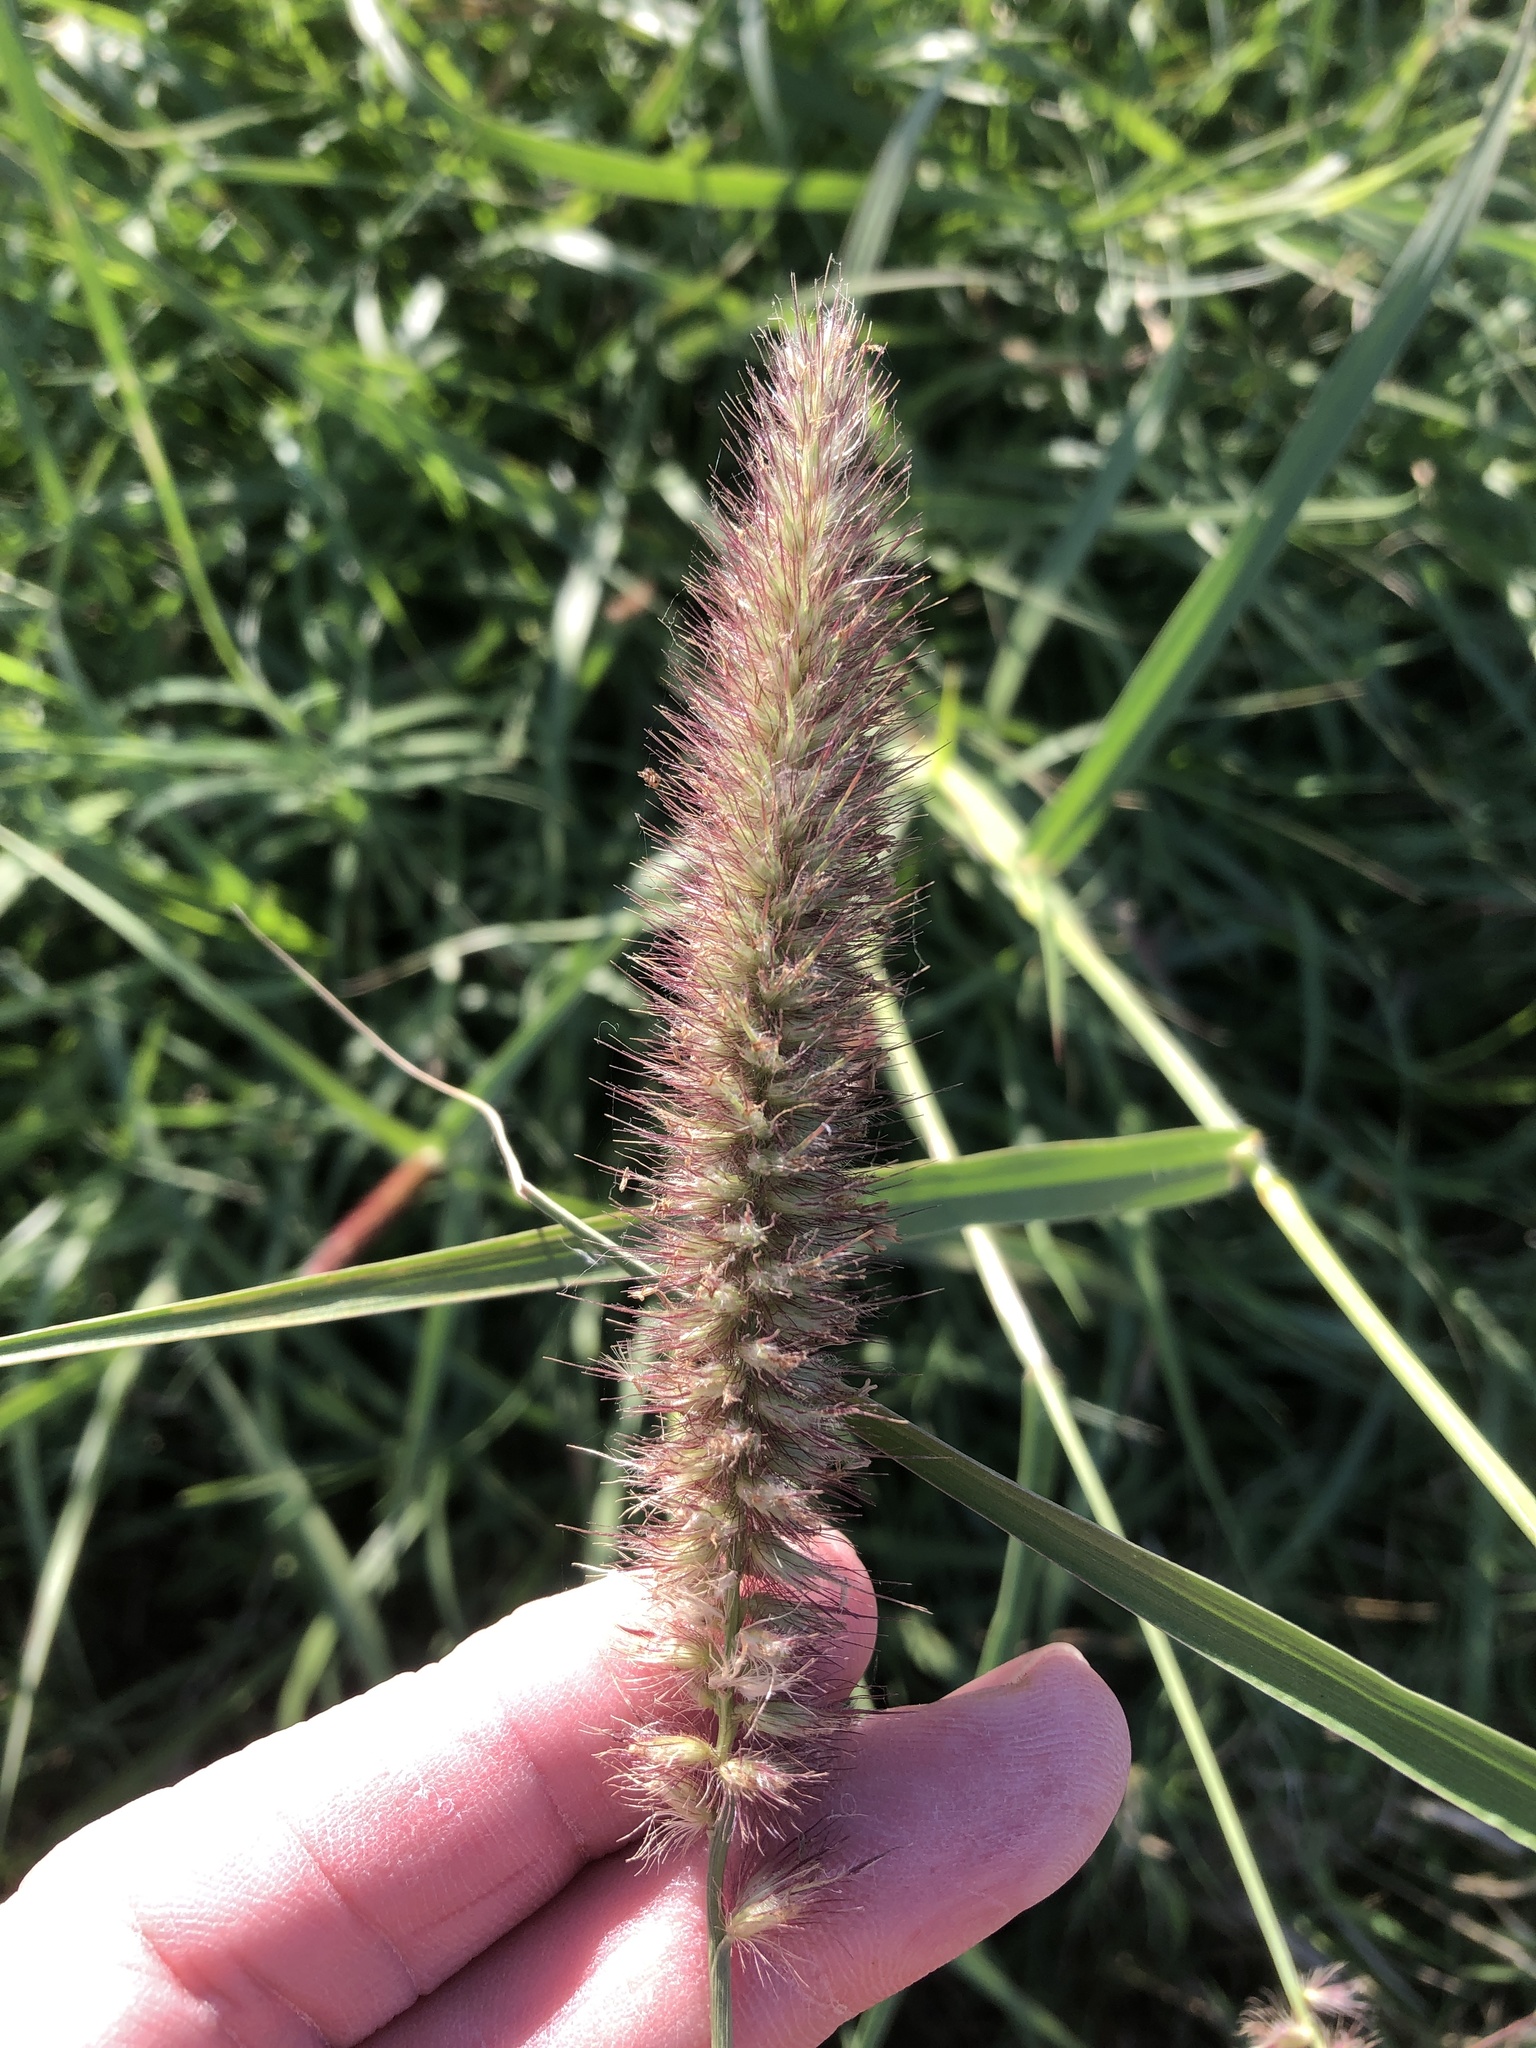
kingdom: Plantae
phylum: Tracheophyta
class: Liliopsida
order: Poales
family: Poaceae
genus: Cenchrus
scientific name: Cenchrus ciliaris
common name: Buffelgrass
